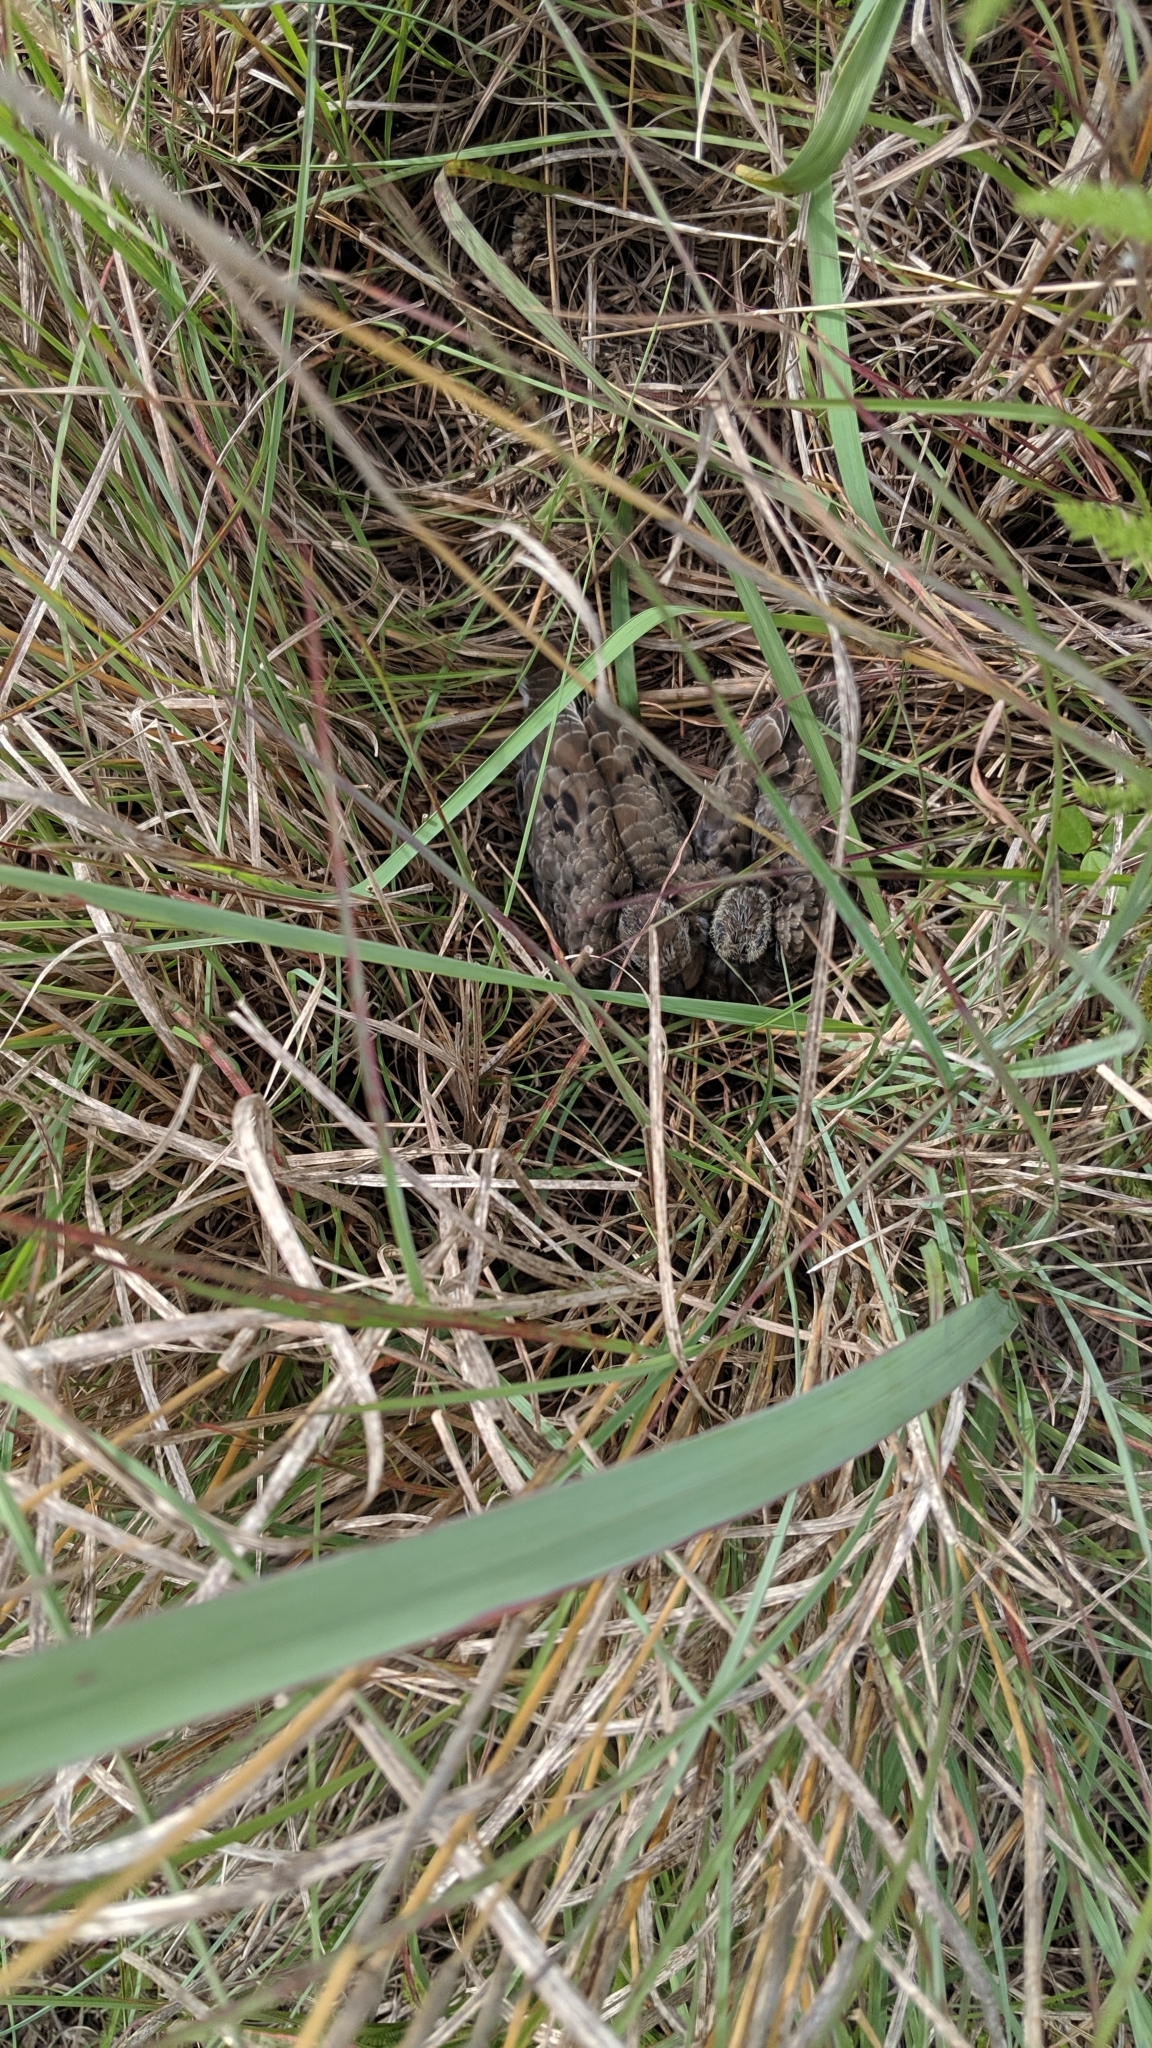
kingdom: Animalia
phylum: Chordata
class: Aves
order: Columbiformes
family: Columbidae
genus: Zenaida
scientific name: Zenaida macroura
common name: Mourning dove
